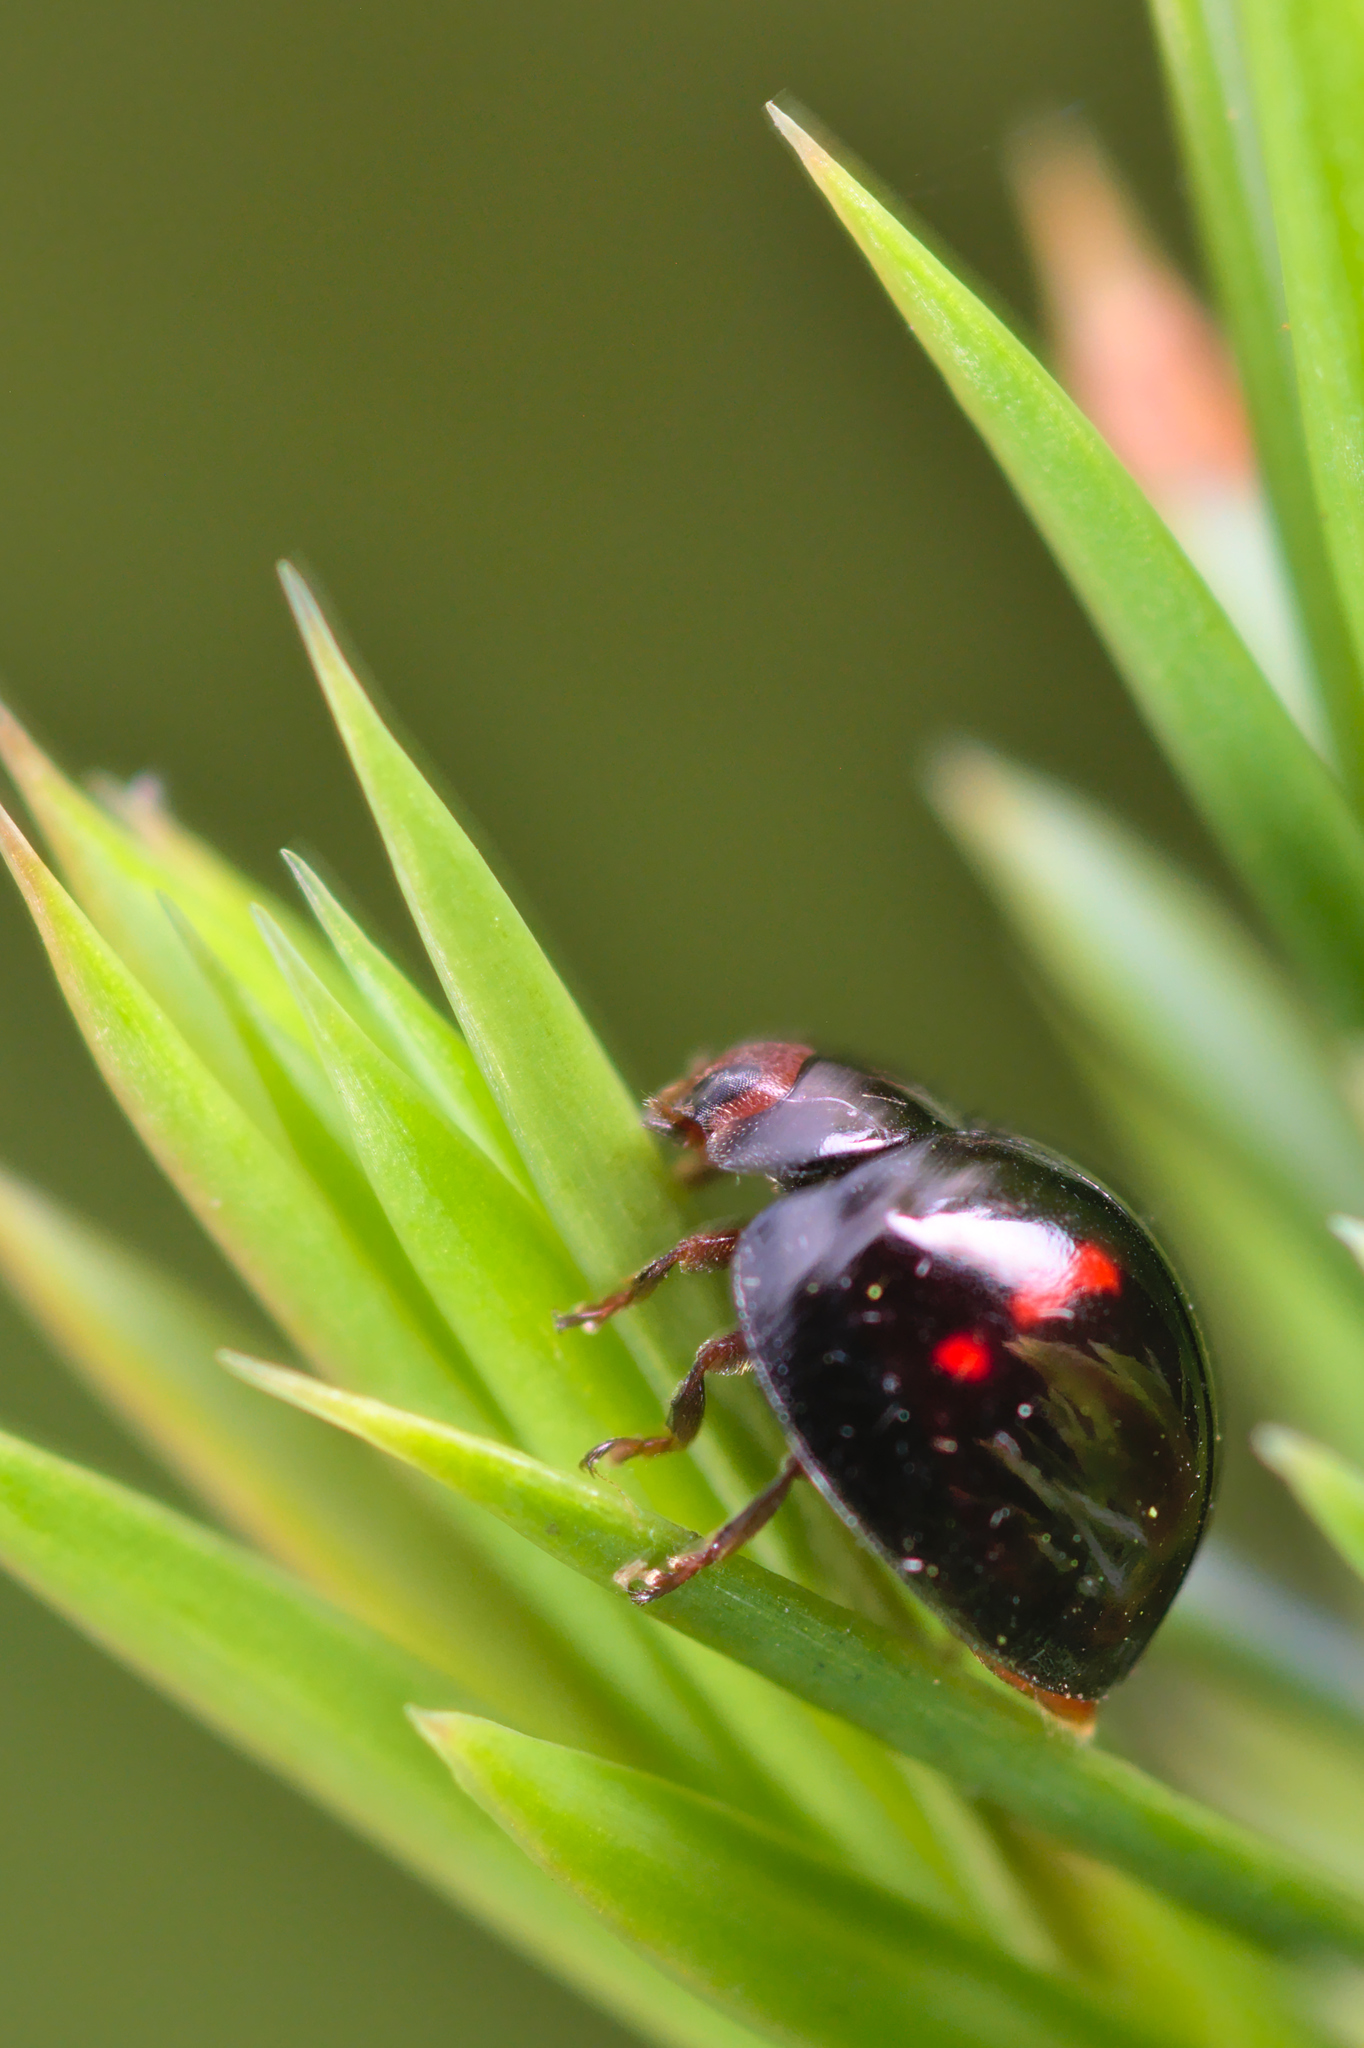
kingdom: Animalia
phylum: Arthropoda
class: Insecta
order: Coleoptera
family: Coccinellidae
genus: Chilocorus
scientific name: Chilocorus bipustulatus
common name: Heather ladybird
